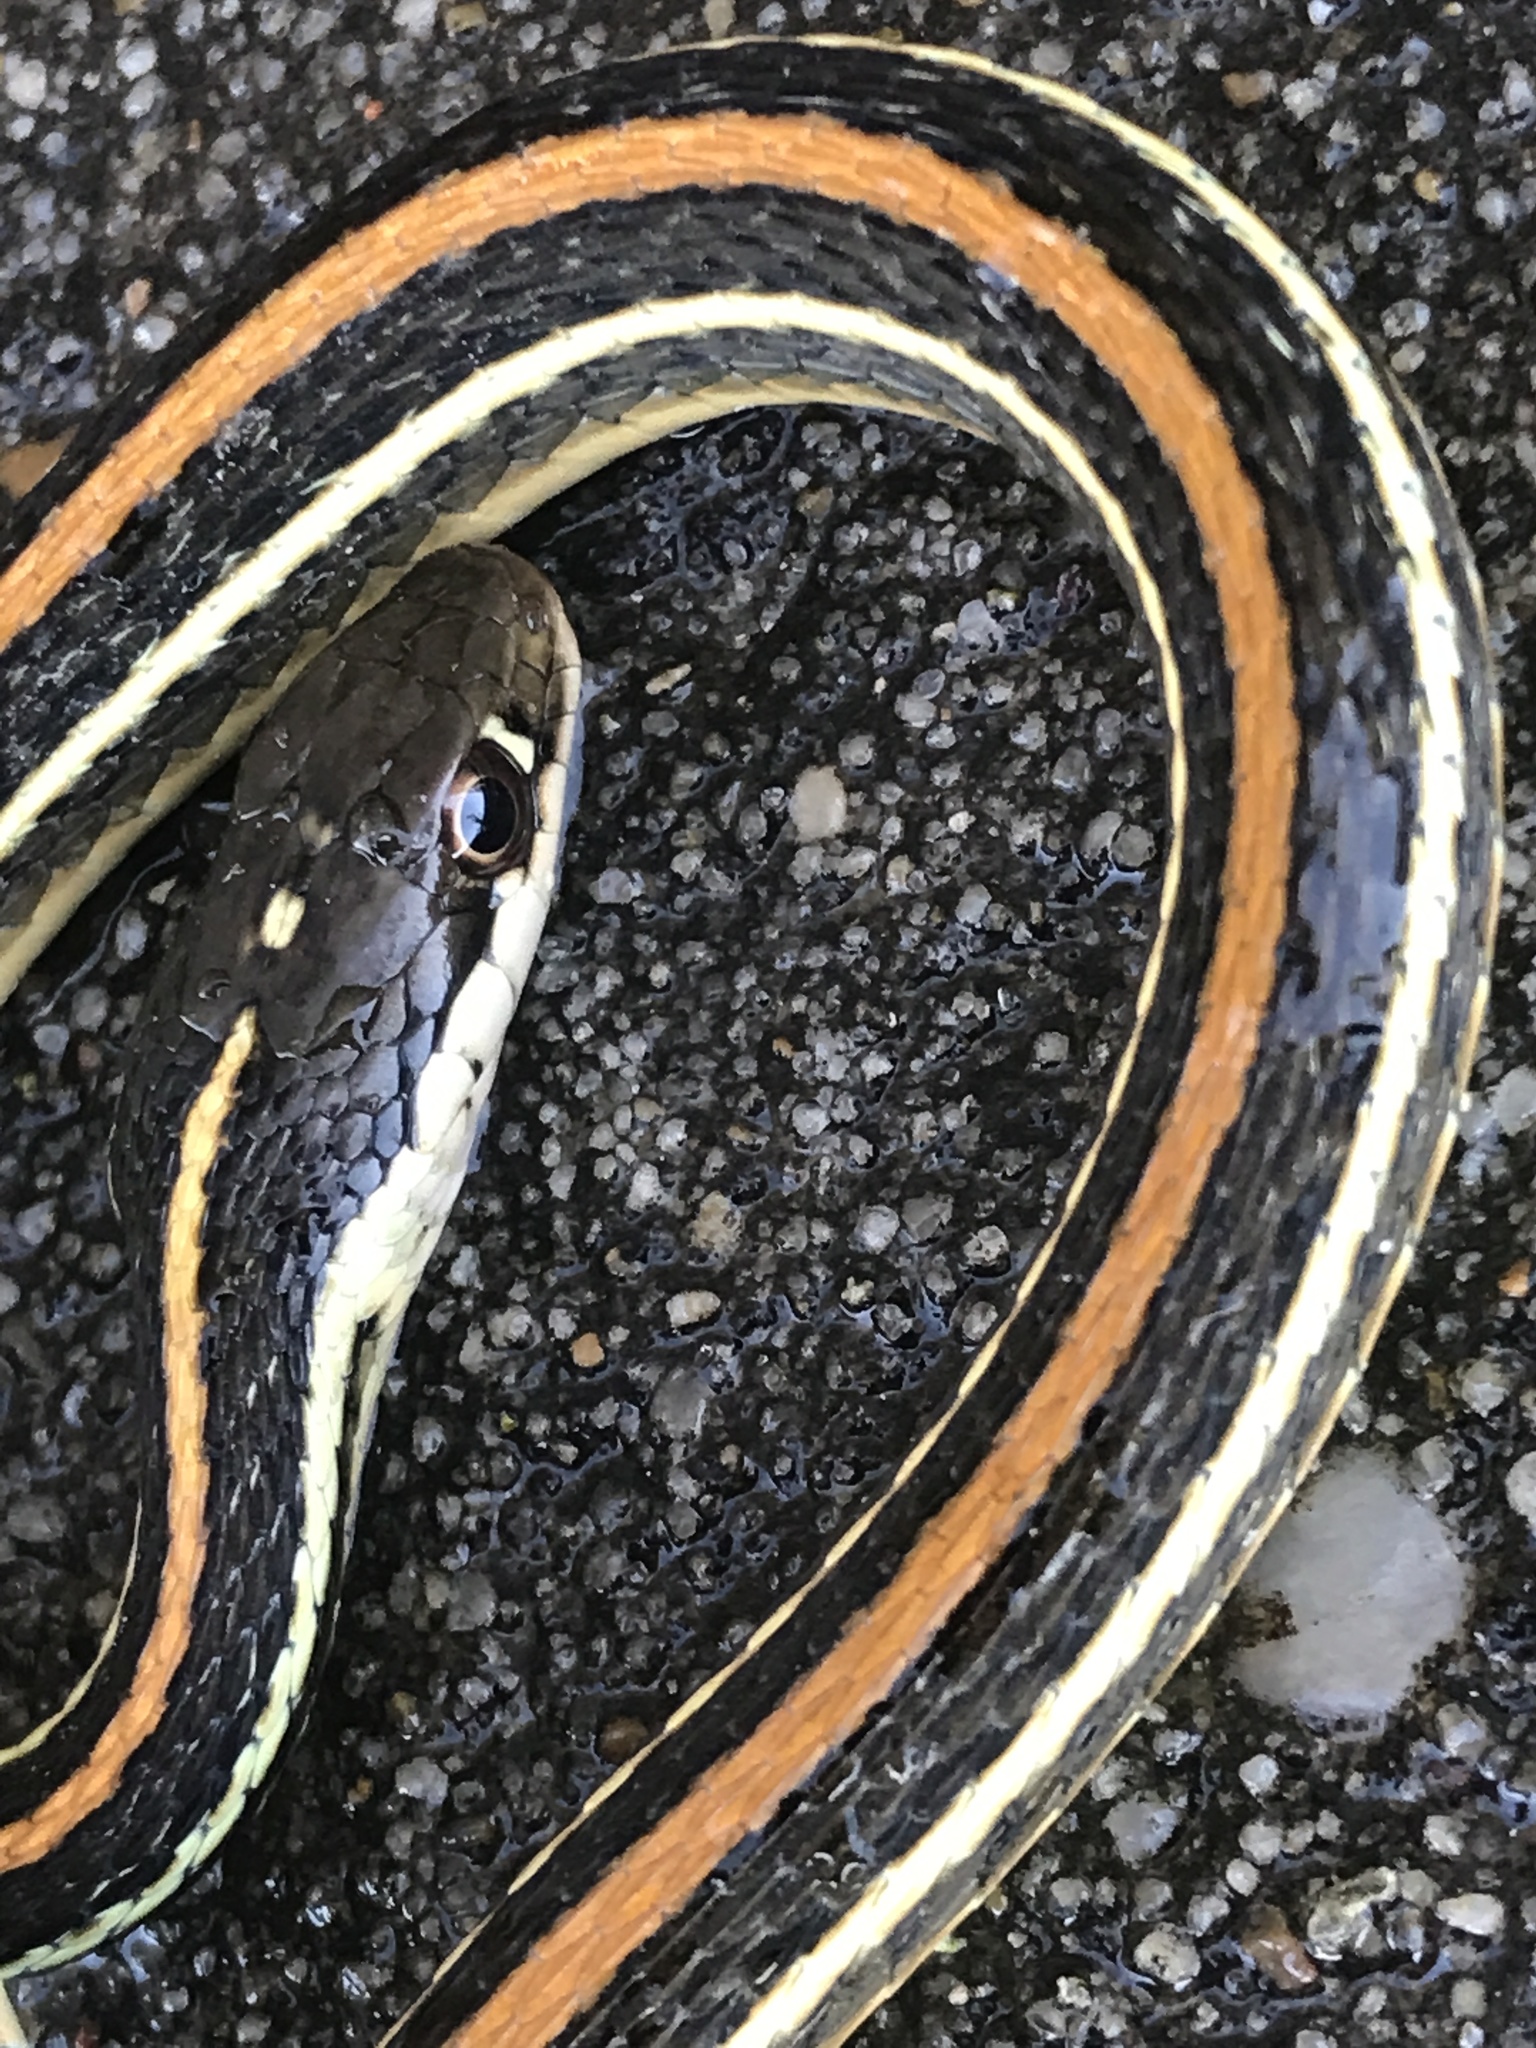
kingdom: Animalia
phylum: Chordata
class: Squamata
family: Colubridae
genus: Thamnophis
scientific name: Thamnophis proximus
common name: Western ribbon snake
